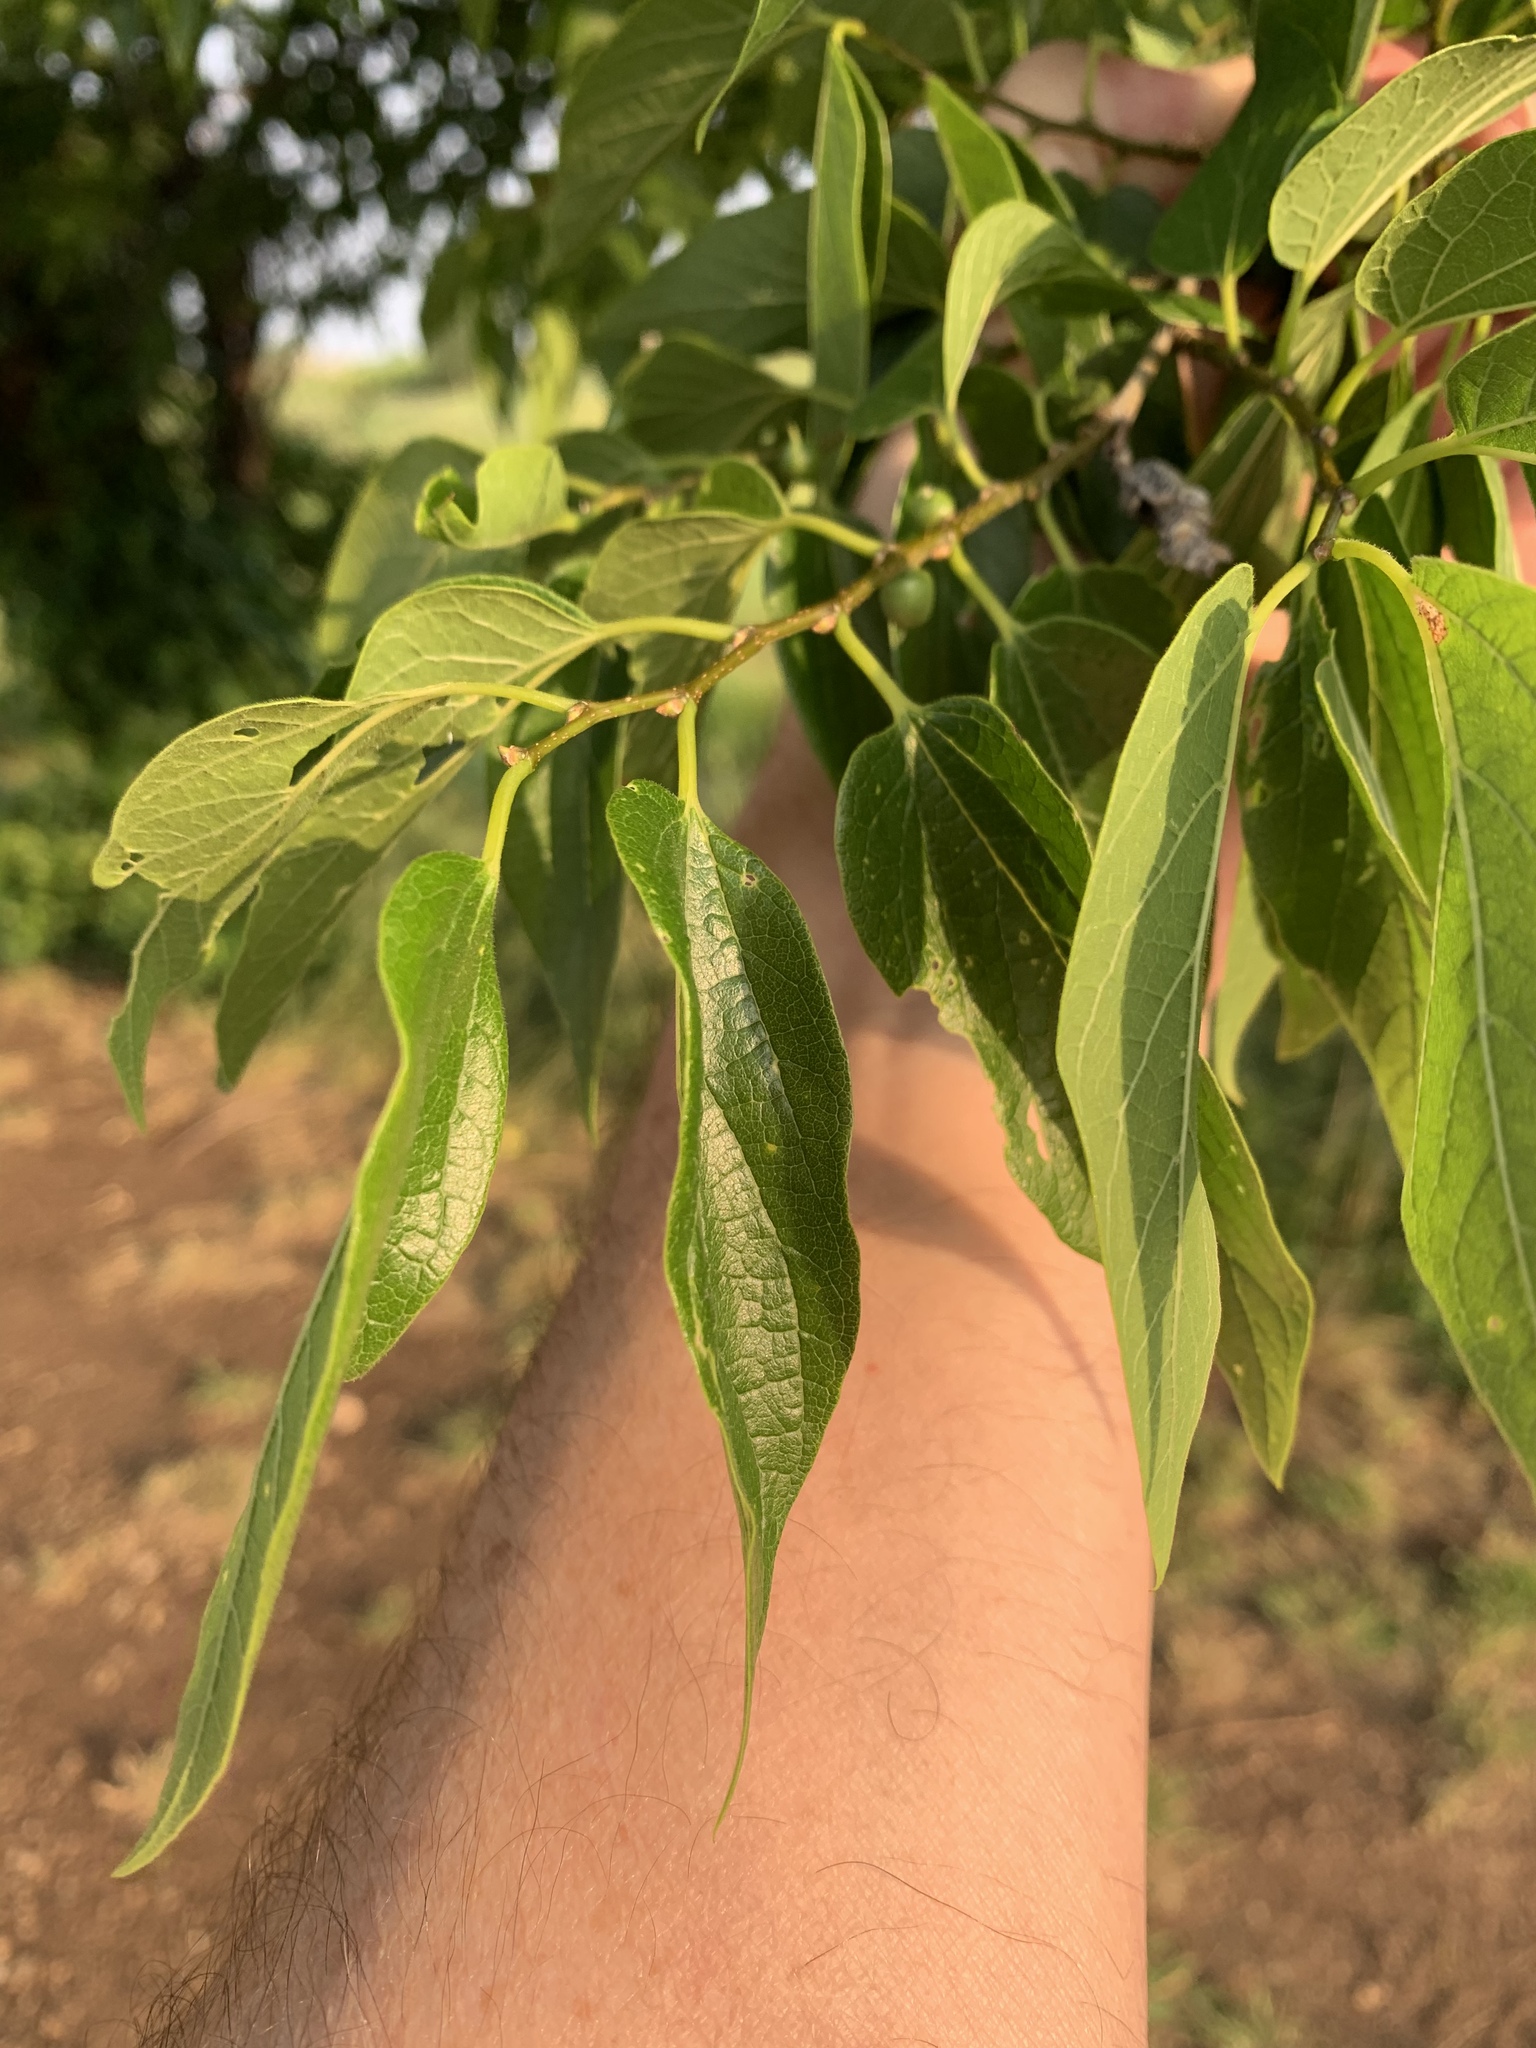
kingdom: Plantae
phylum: Tracheophyta
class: Magnoliopsida
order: Rosales
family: Cannabaceae
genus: Celtis
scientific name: Celtis laevigata
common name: Sugarberry
